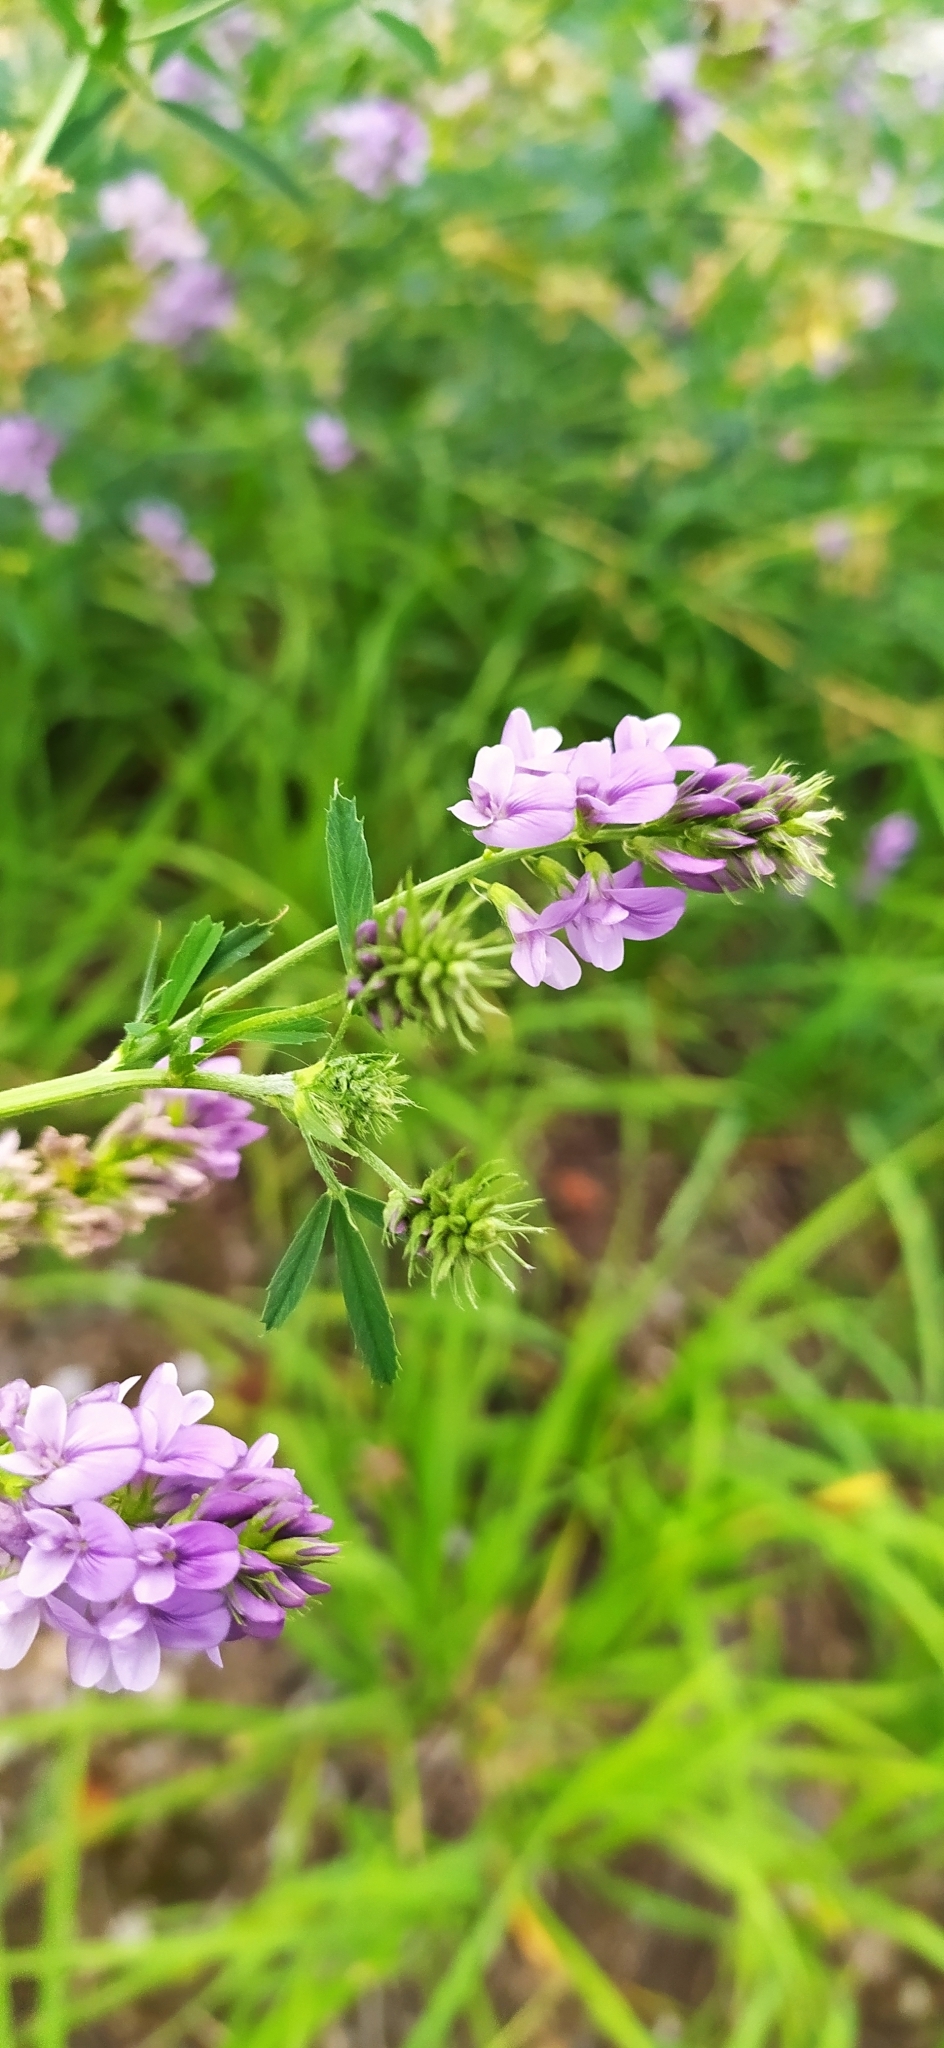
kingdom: Plantae
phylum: Tracheophyta
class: Magnoliopsida
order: Fabales
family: Fabaceae
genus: Medicago
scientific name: Medicago sativa
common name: Alfalfa
